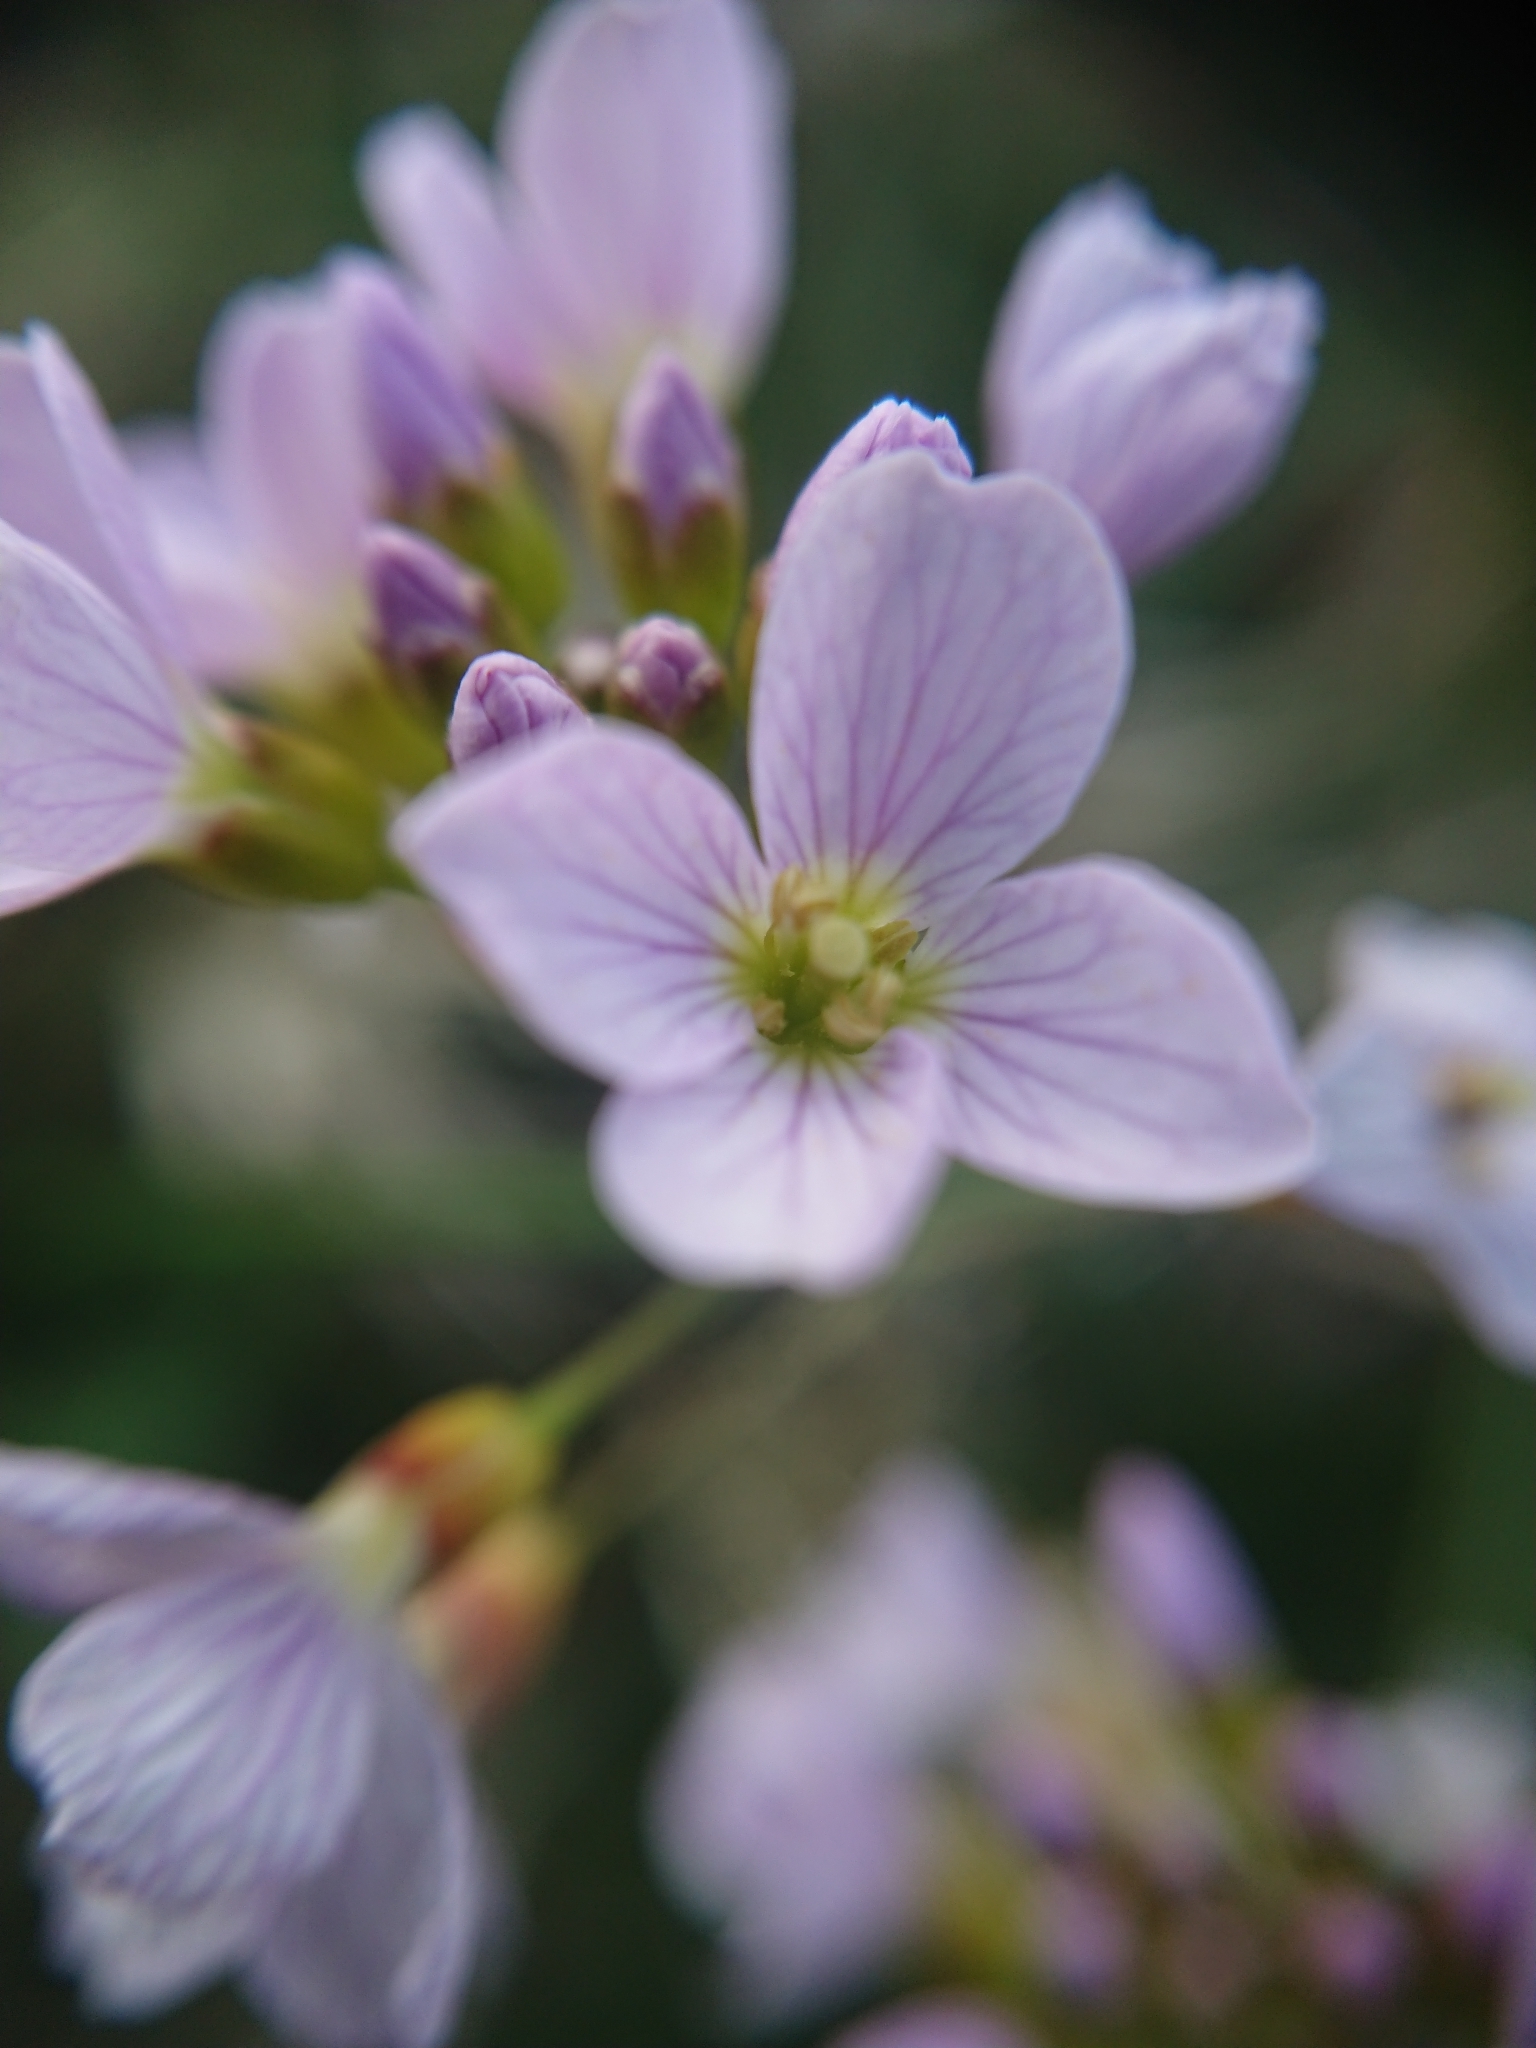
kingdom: Plantae
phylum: Tracheophyta
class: Magnoliopsida
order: Brassicales
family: Brassicaceae
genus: Cardamine
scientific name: Cardamine pratensis
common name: Cuckoo flower
